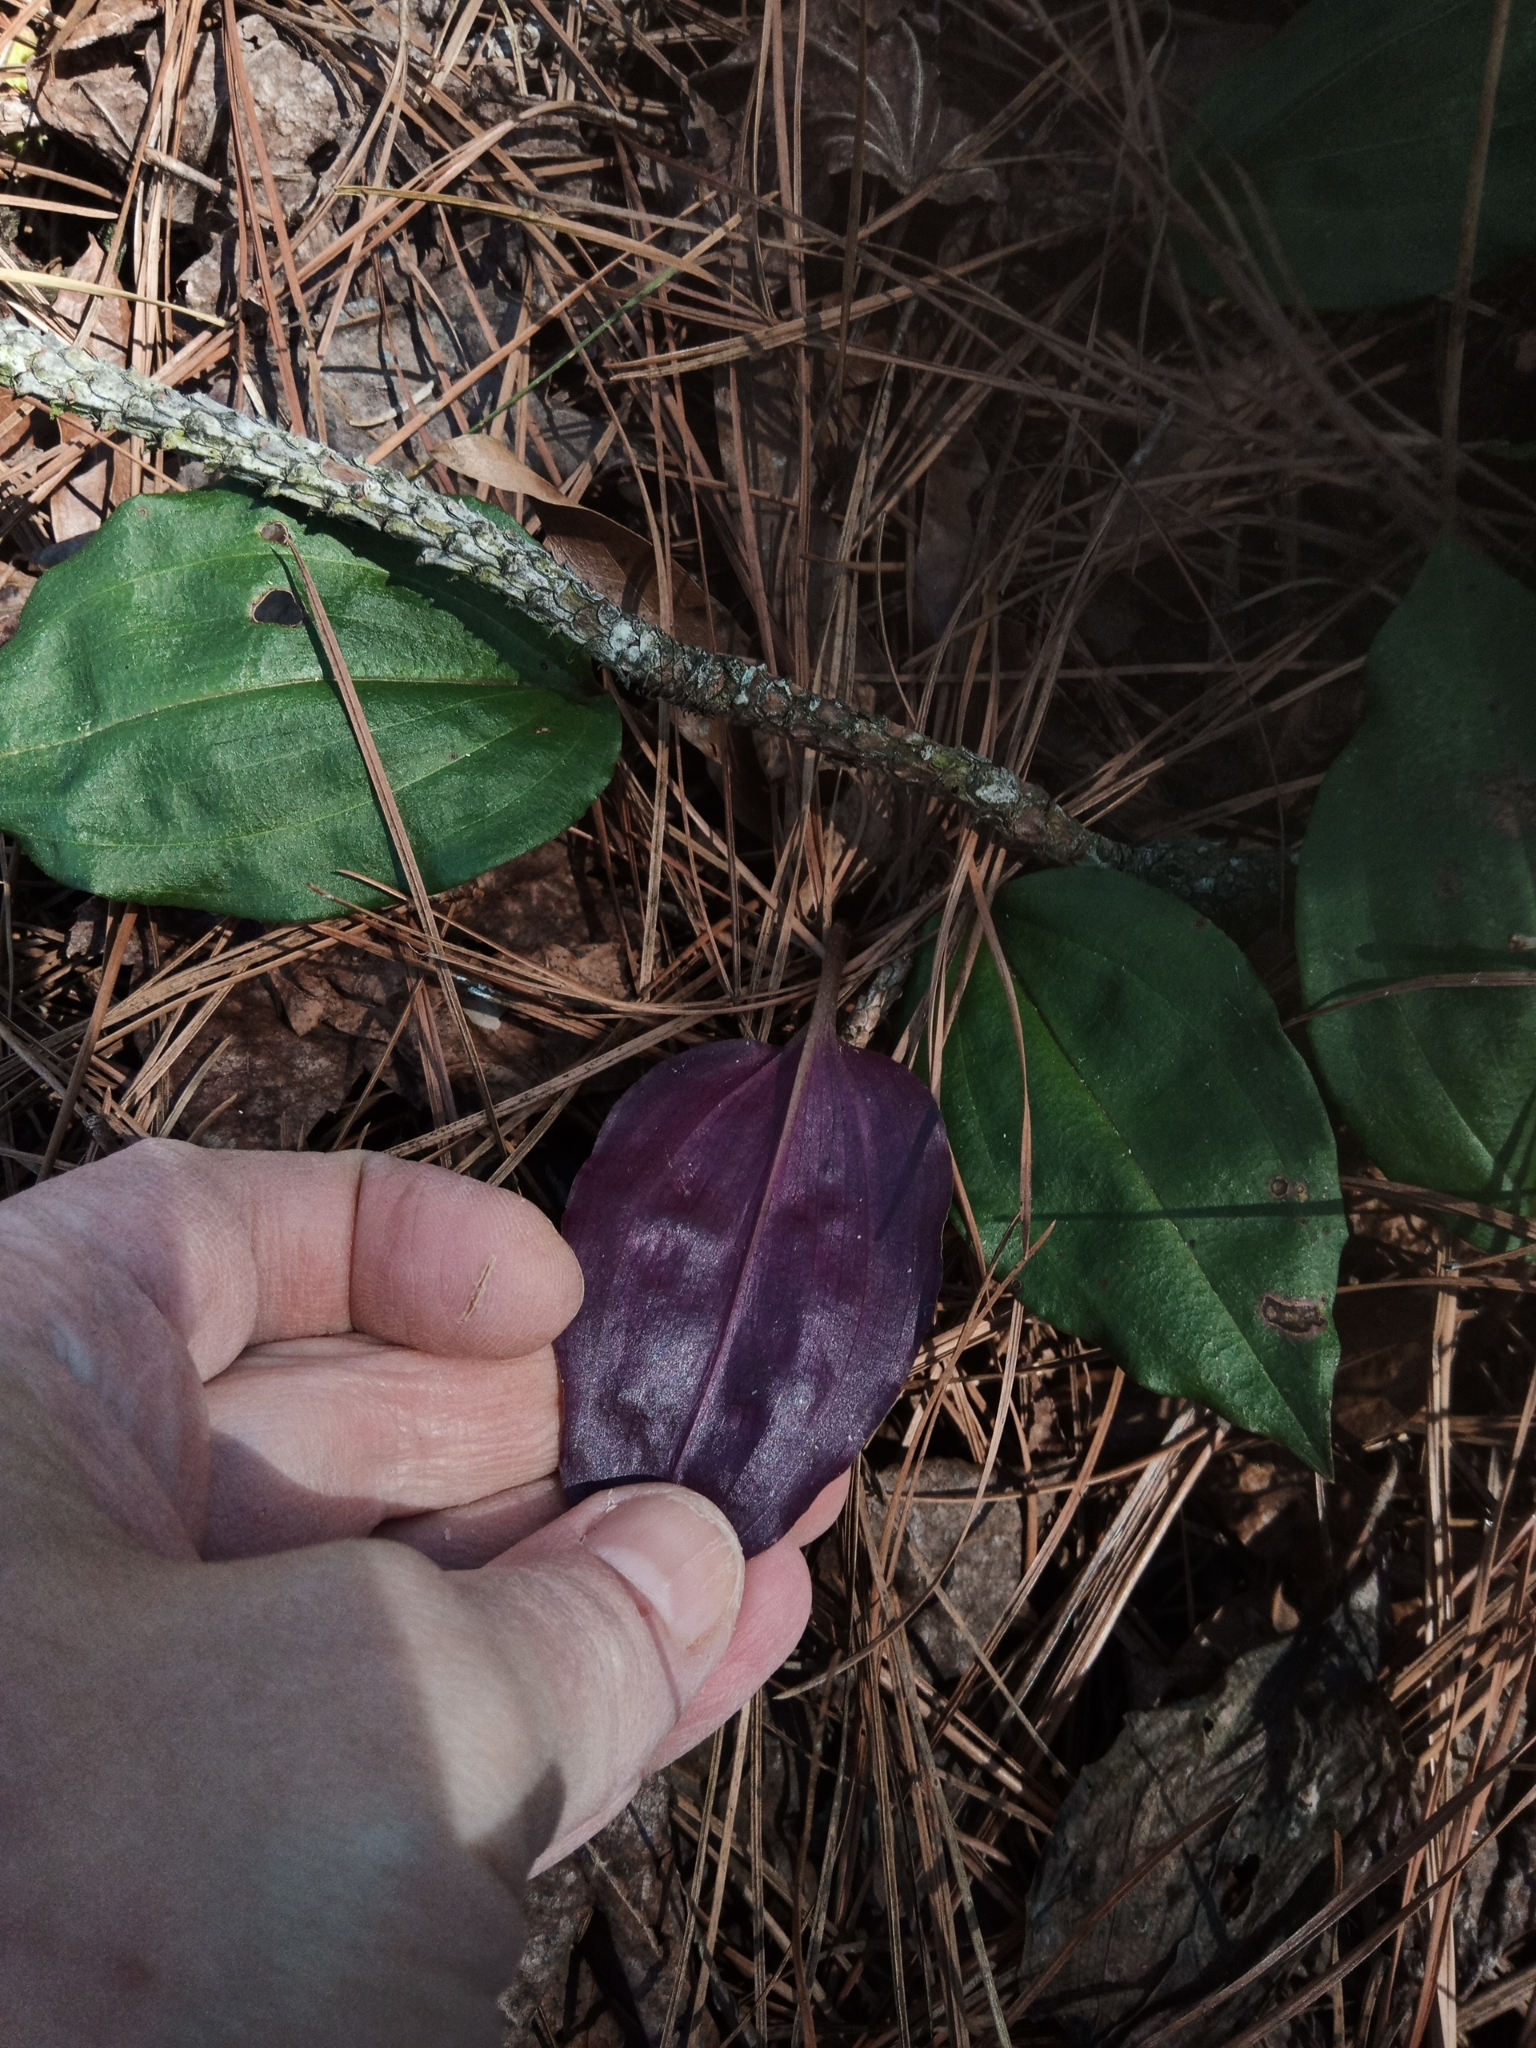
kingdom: Plantae
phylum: Tracheophyta
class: Liliopsida
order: Asparagales
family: Orchidaceae
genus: Tipularia
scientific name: Tipularia discolor
